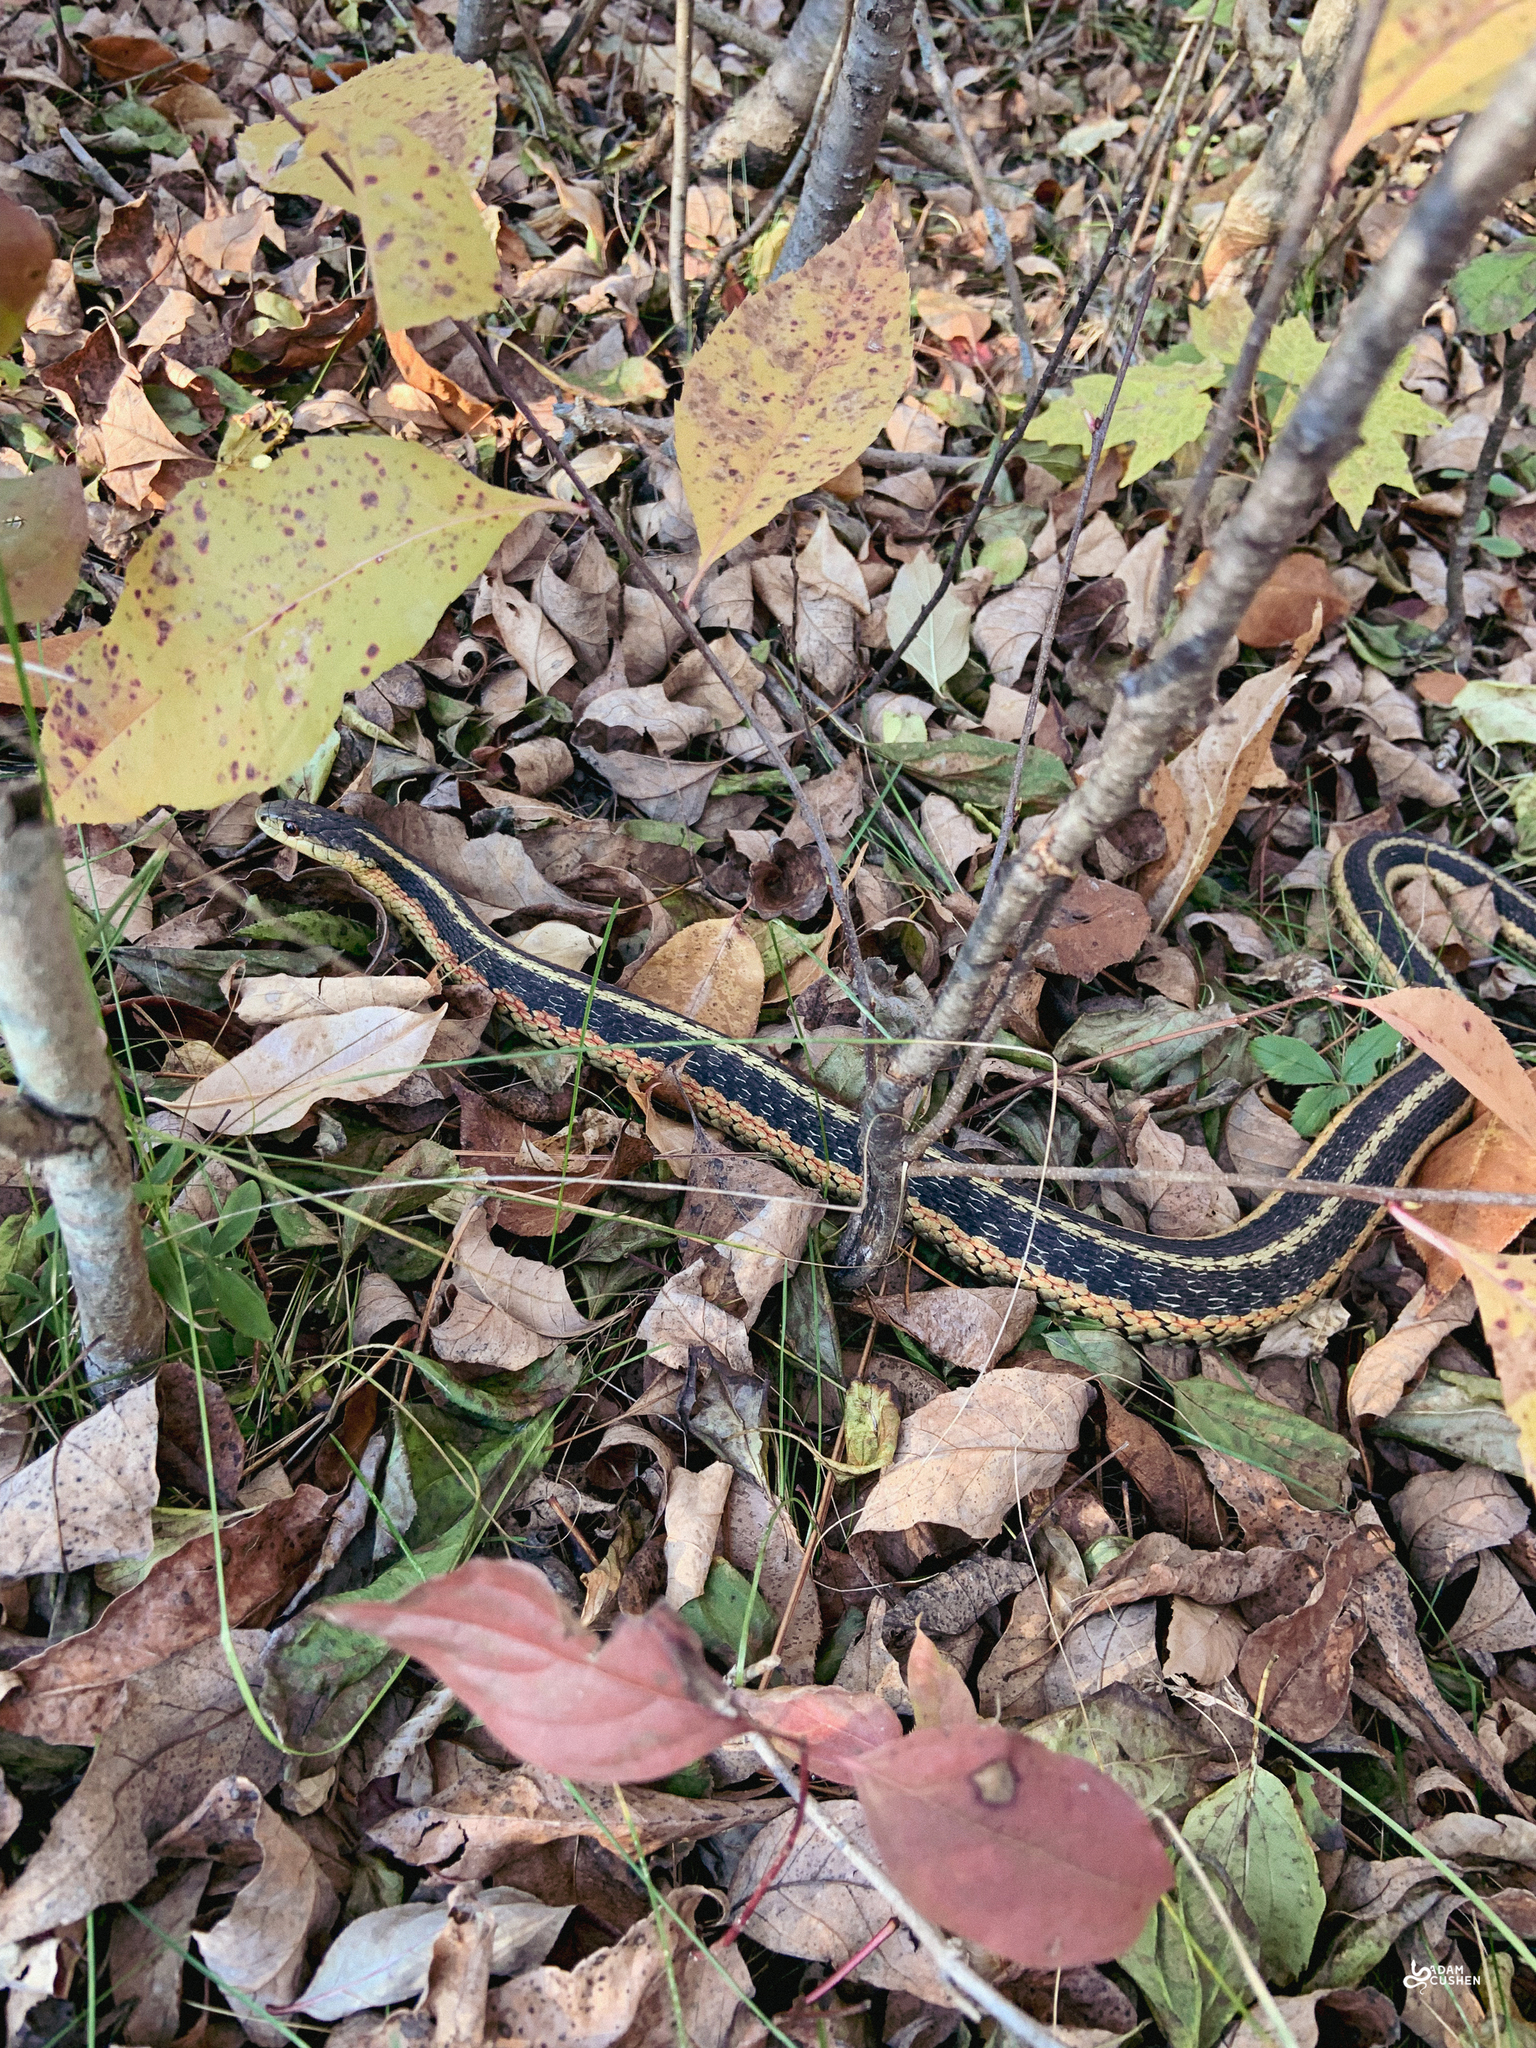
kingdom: Animalia
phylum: Chordata
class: Squamata
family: Colubridae
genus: Thamnophis
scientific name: Thamnophis sirtalis
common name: Common garter snake
